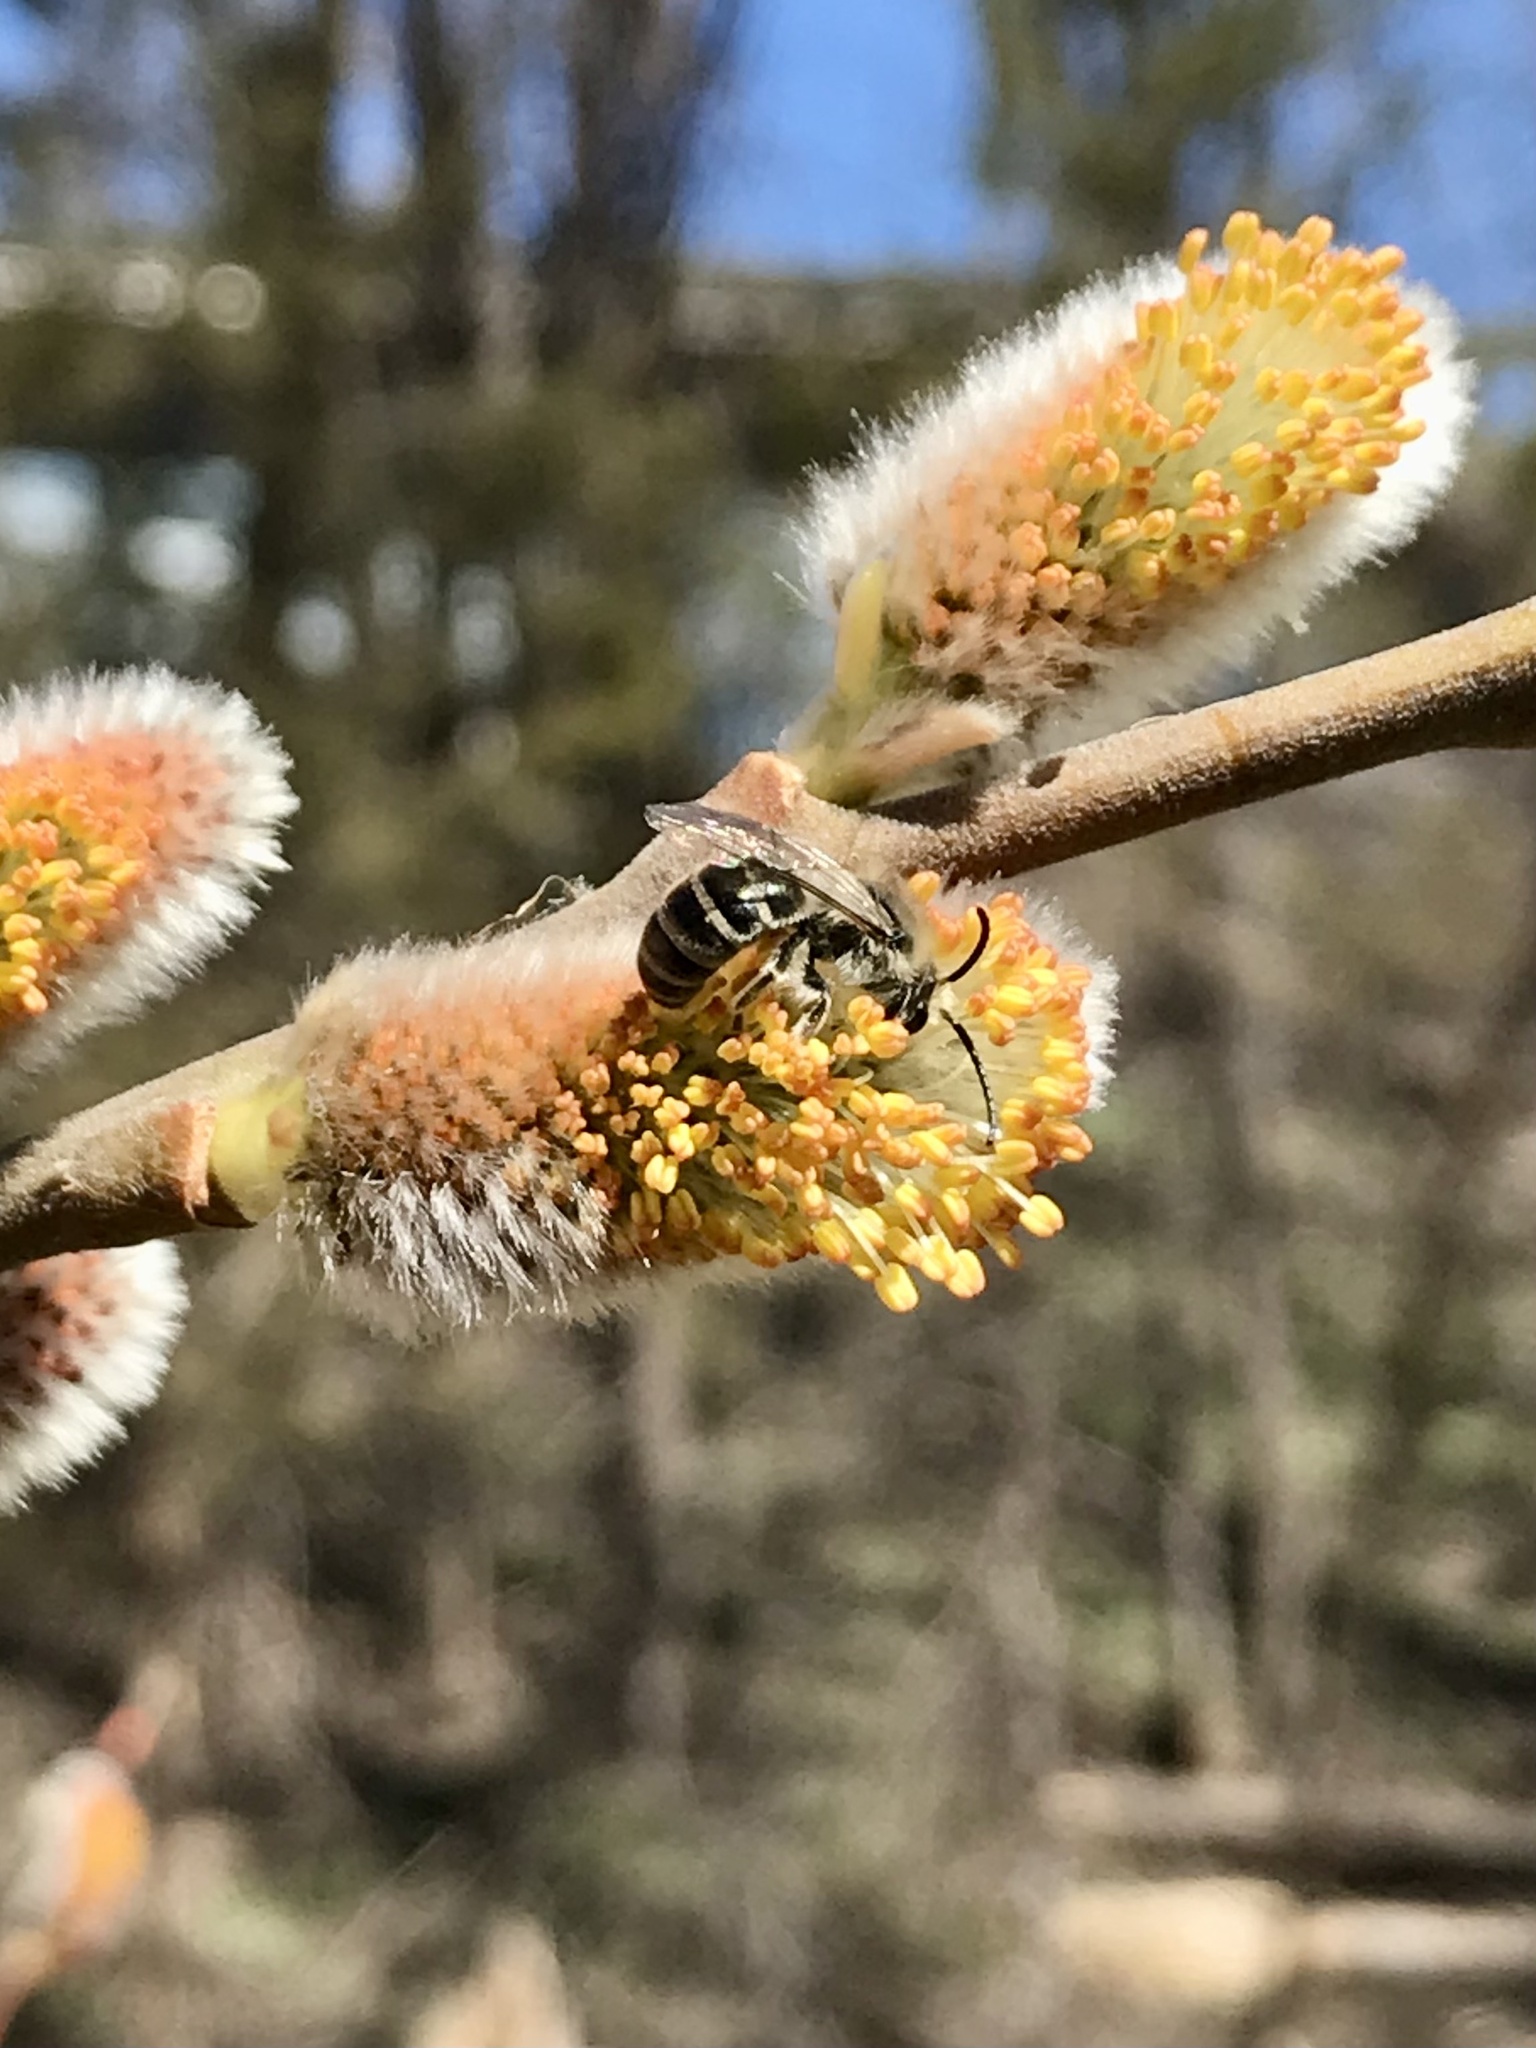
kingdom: Animalia
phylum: Arthropoda
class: Insecta
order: Hymenoptera
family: Colletidae
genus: Colletes
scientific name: Colletes inaequalis
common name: Unequal cellophane bee
